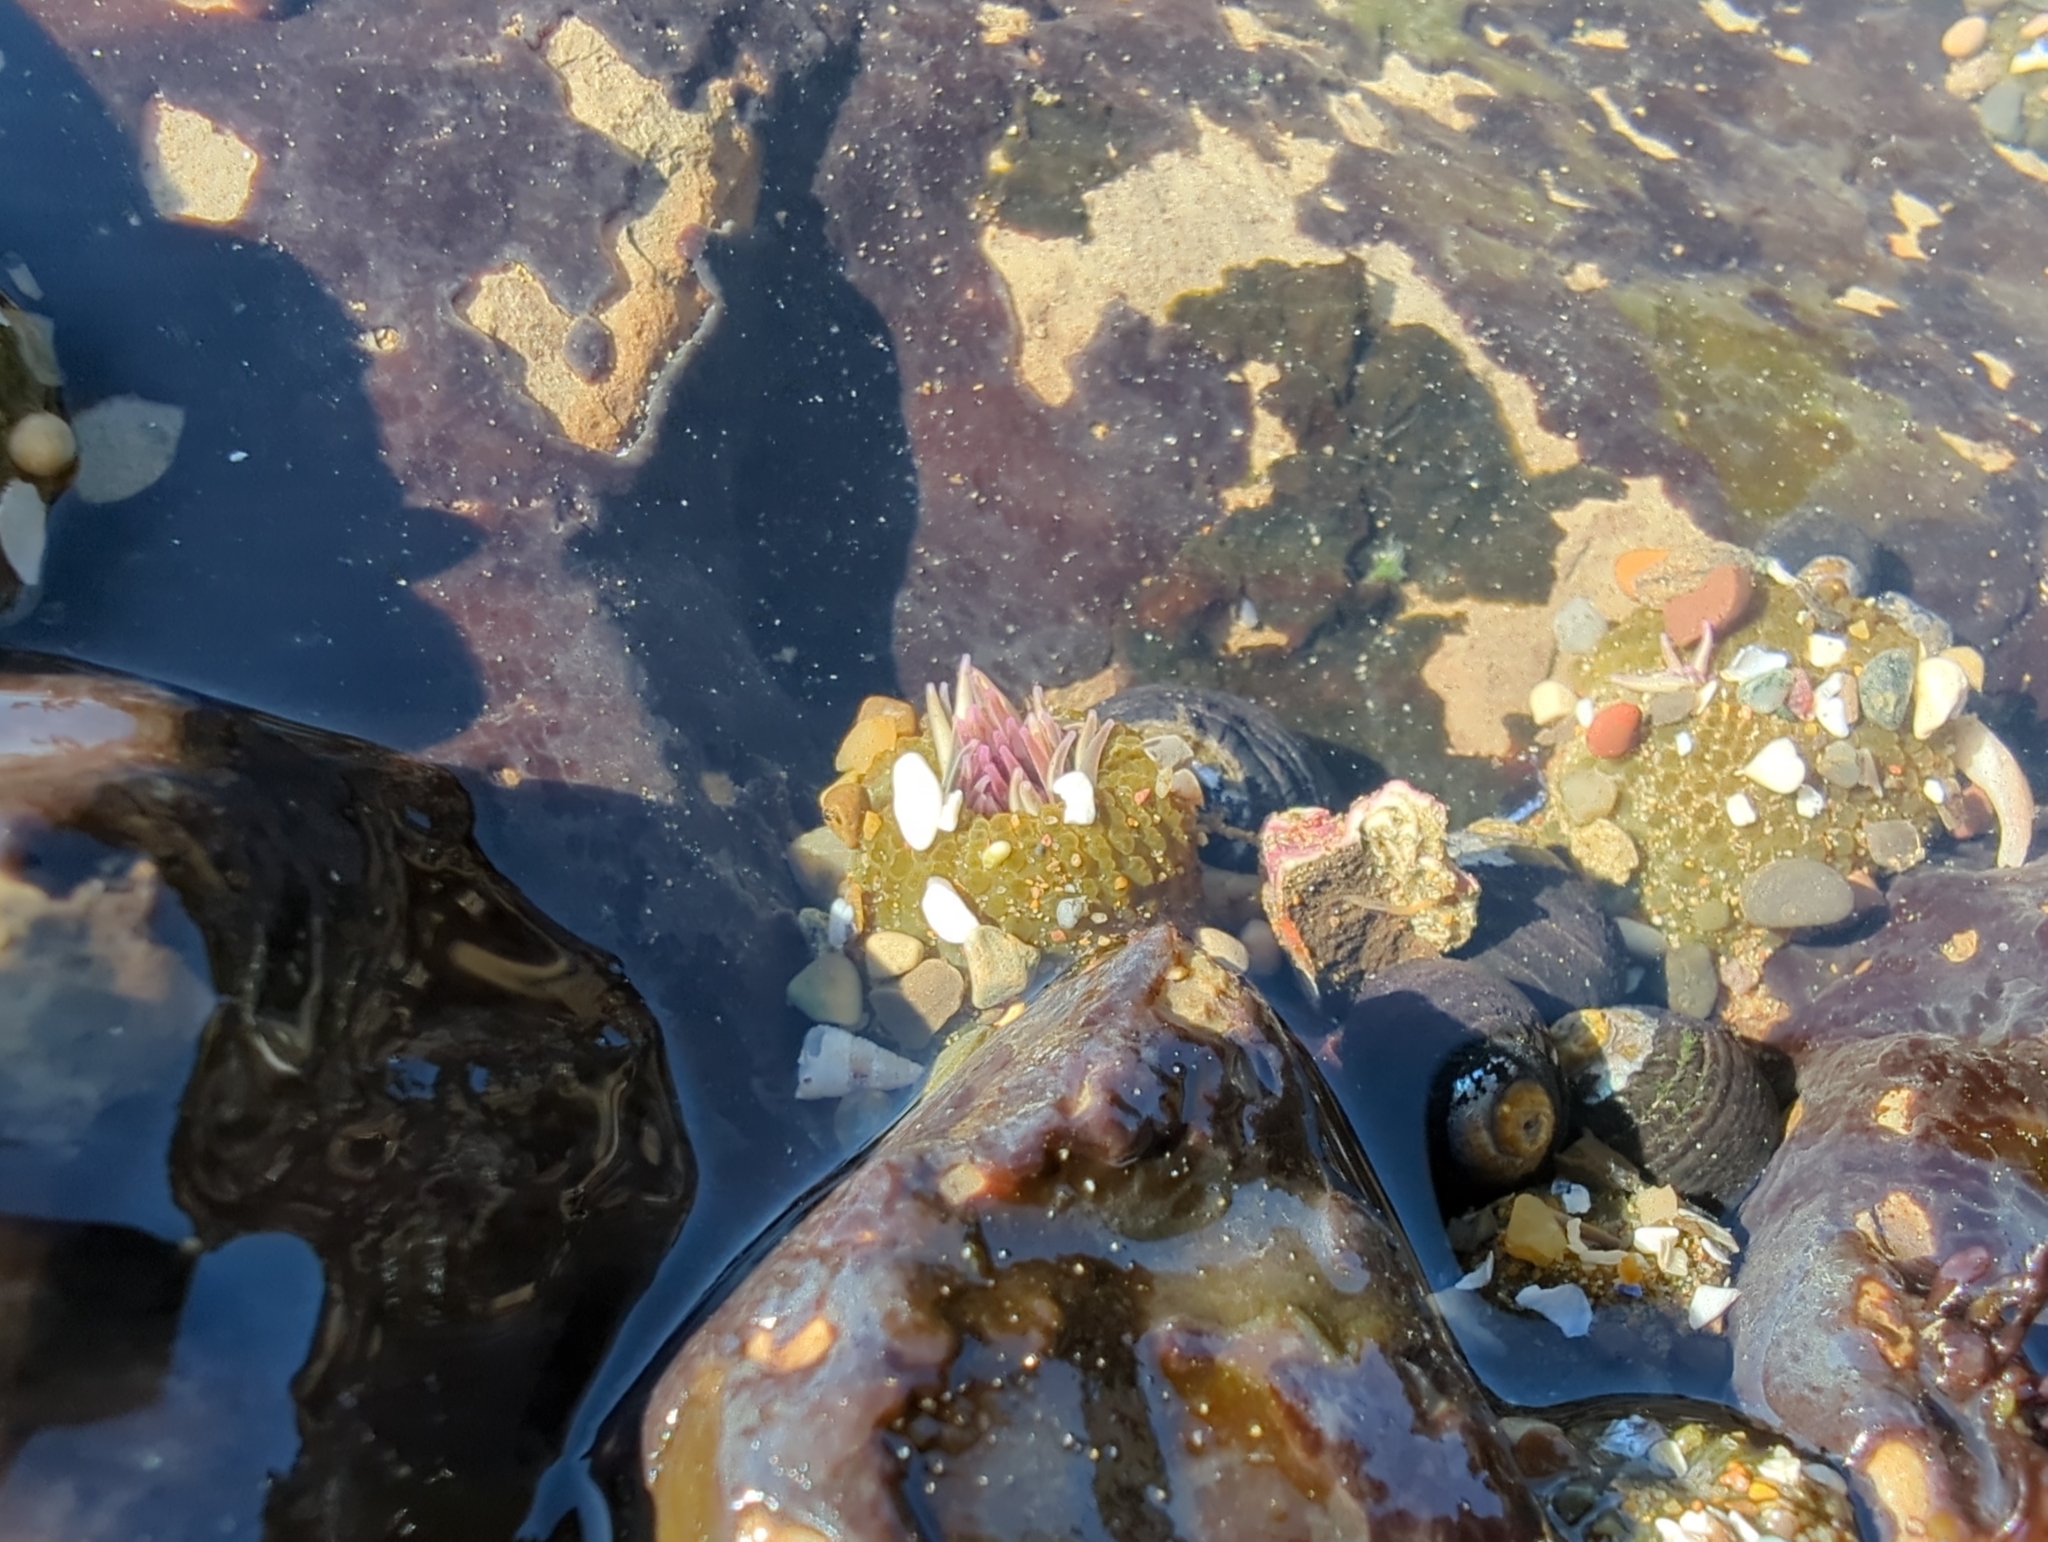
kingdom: Animalia
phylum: Cnidaria
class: Anthozoa
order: Actiniaria
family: Actiniidae
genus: Anthopleura
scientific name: Anthopleura elegantissima
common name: Clonal anemone
